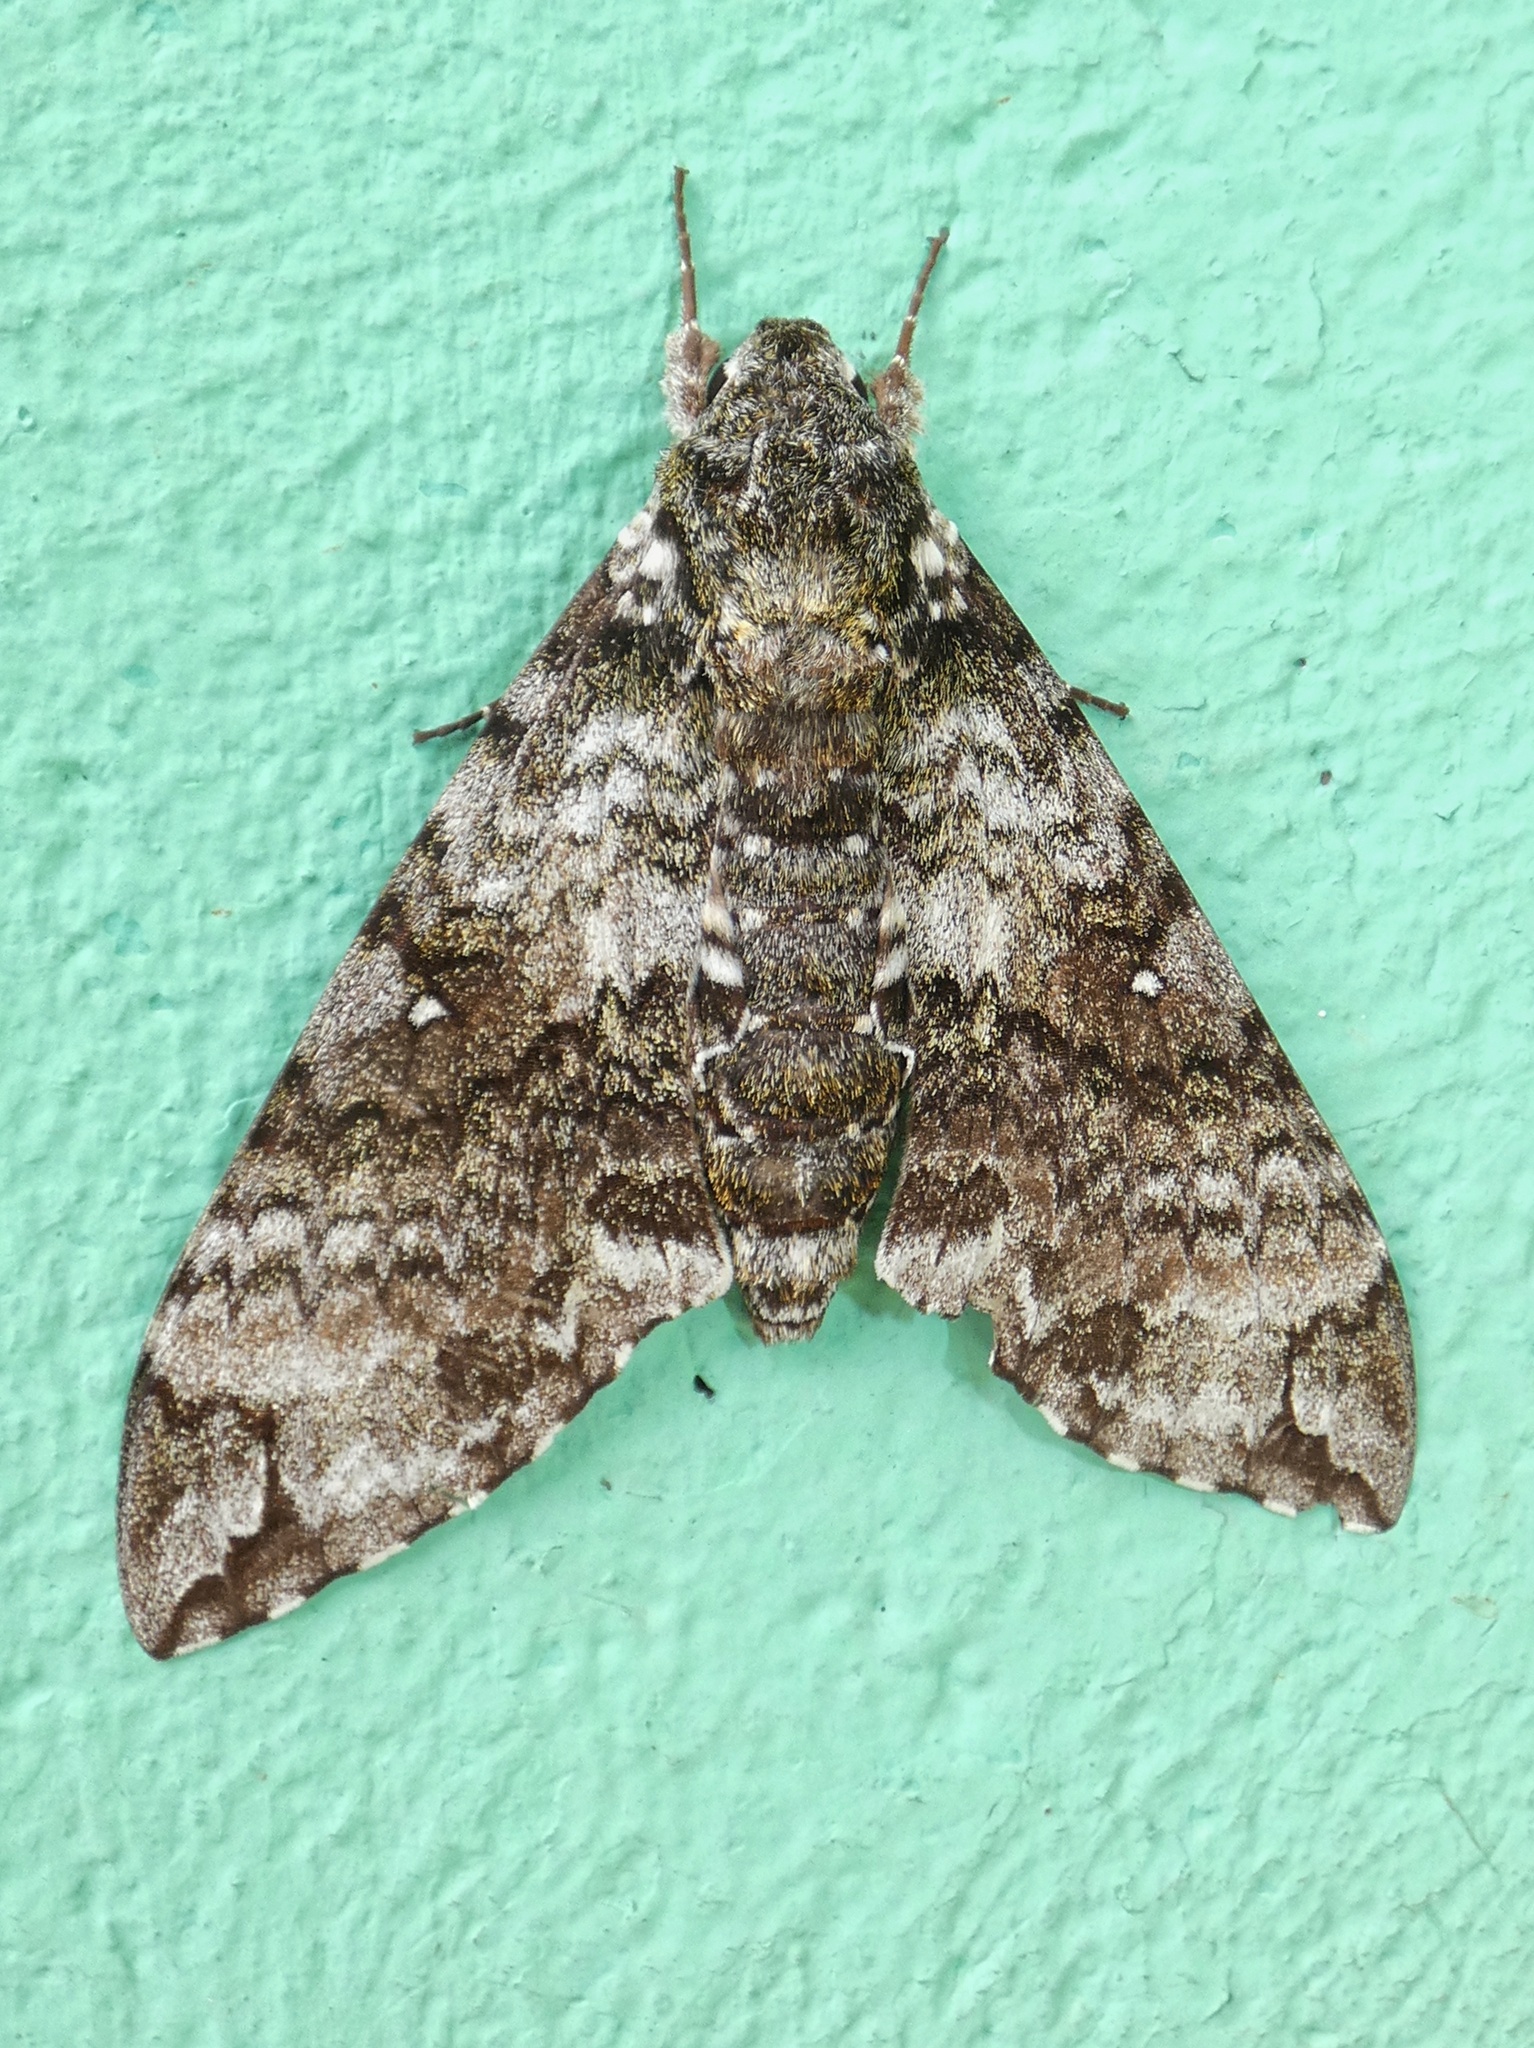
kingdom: Animalia
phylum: Arthropoda
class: Insecta
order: Lepidoptera
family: Sphingidae
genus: Manduca
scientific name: Manduca schausi
